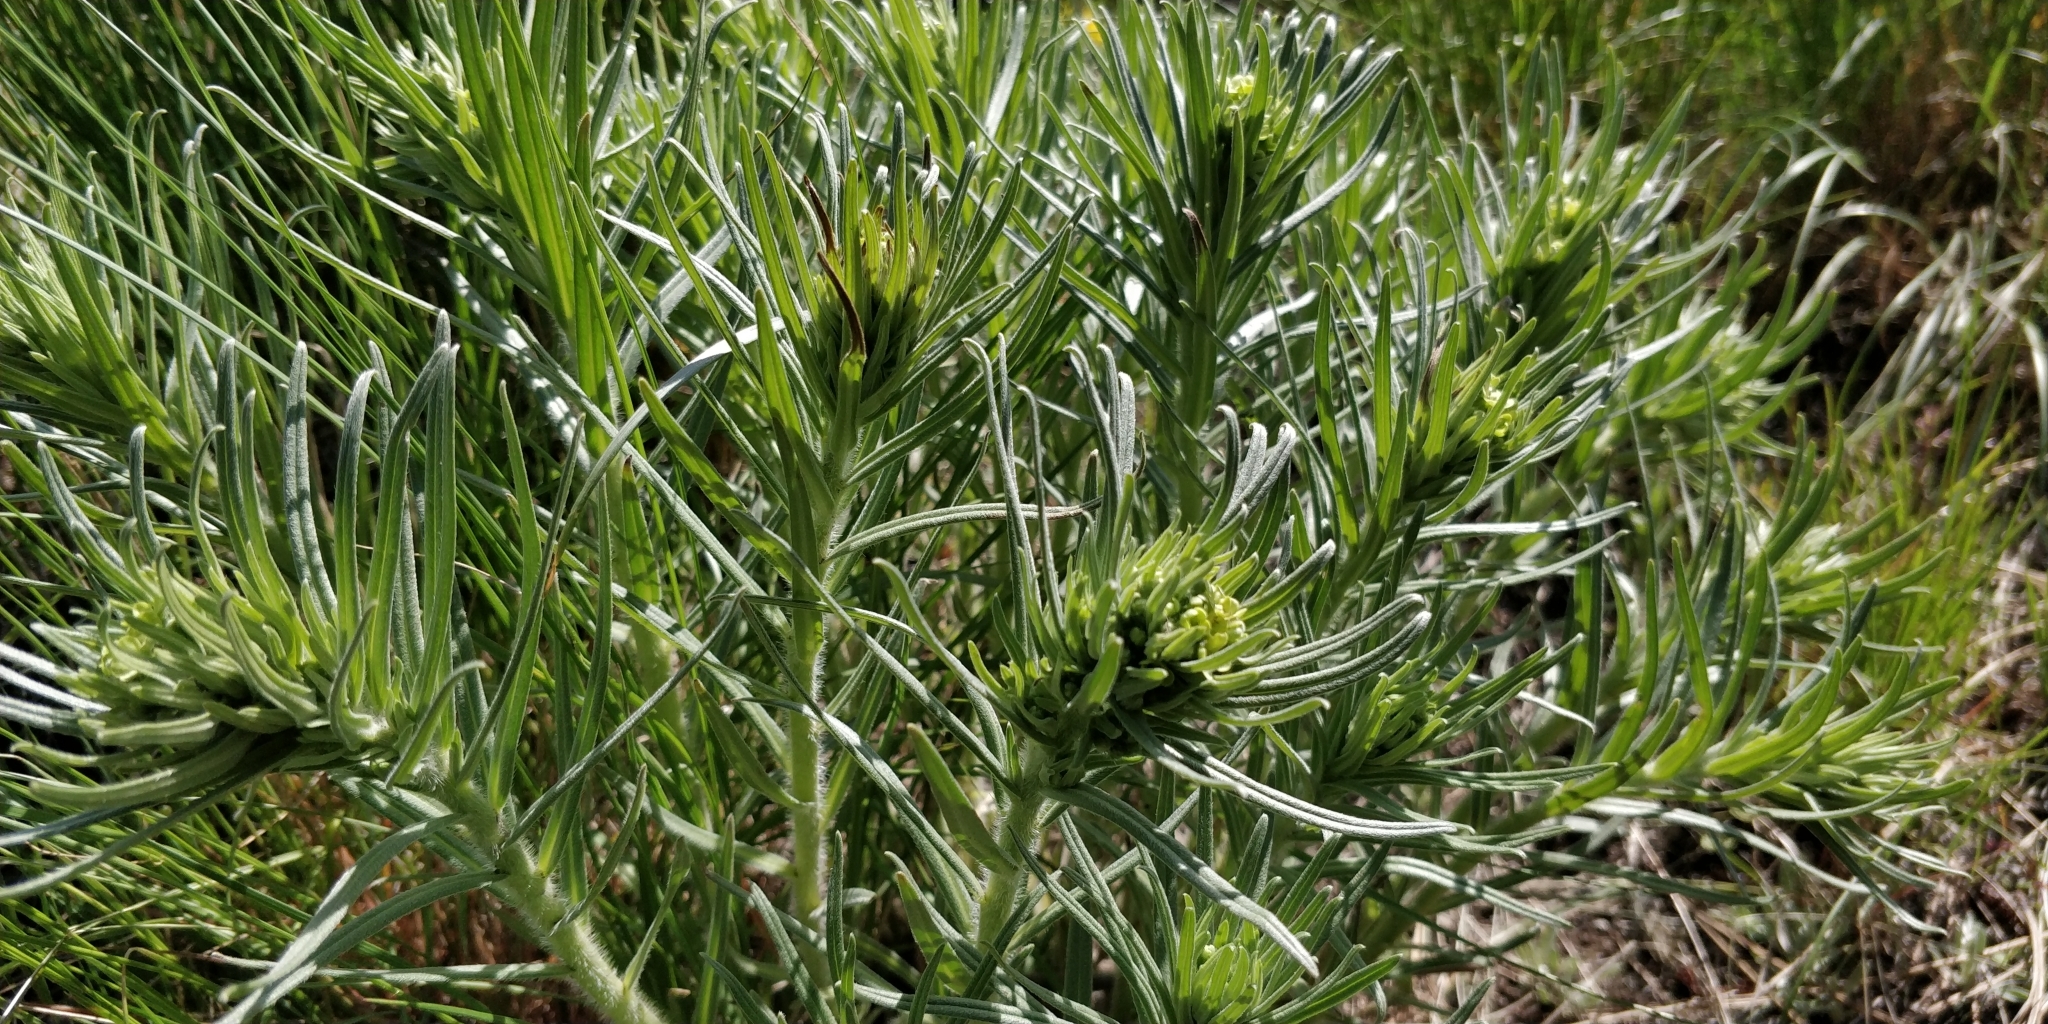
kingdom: Plantae
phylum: Tracheophyta
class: Magnoliopsida
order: Boraginales
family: Boraginaceae
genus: Lithospermum
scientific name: Lithospermum ruderale
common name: Western gromwell
